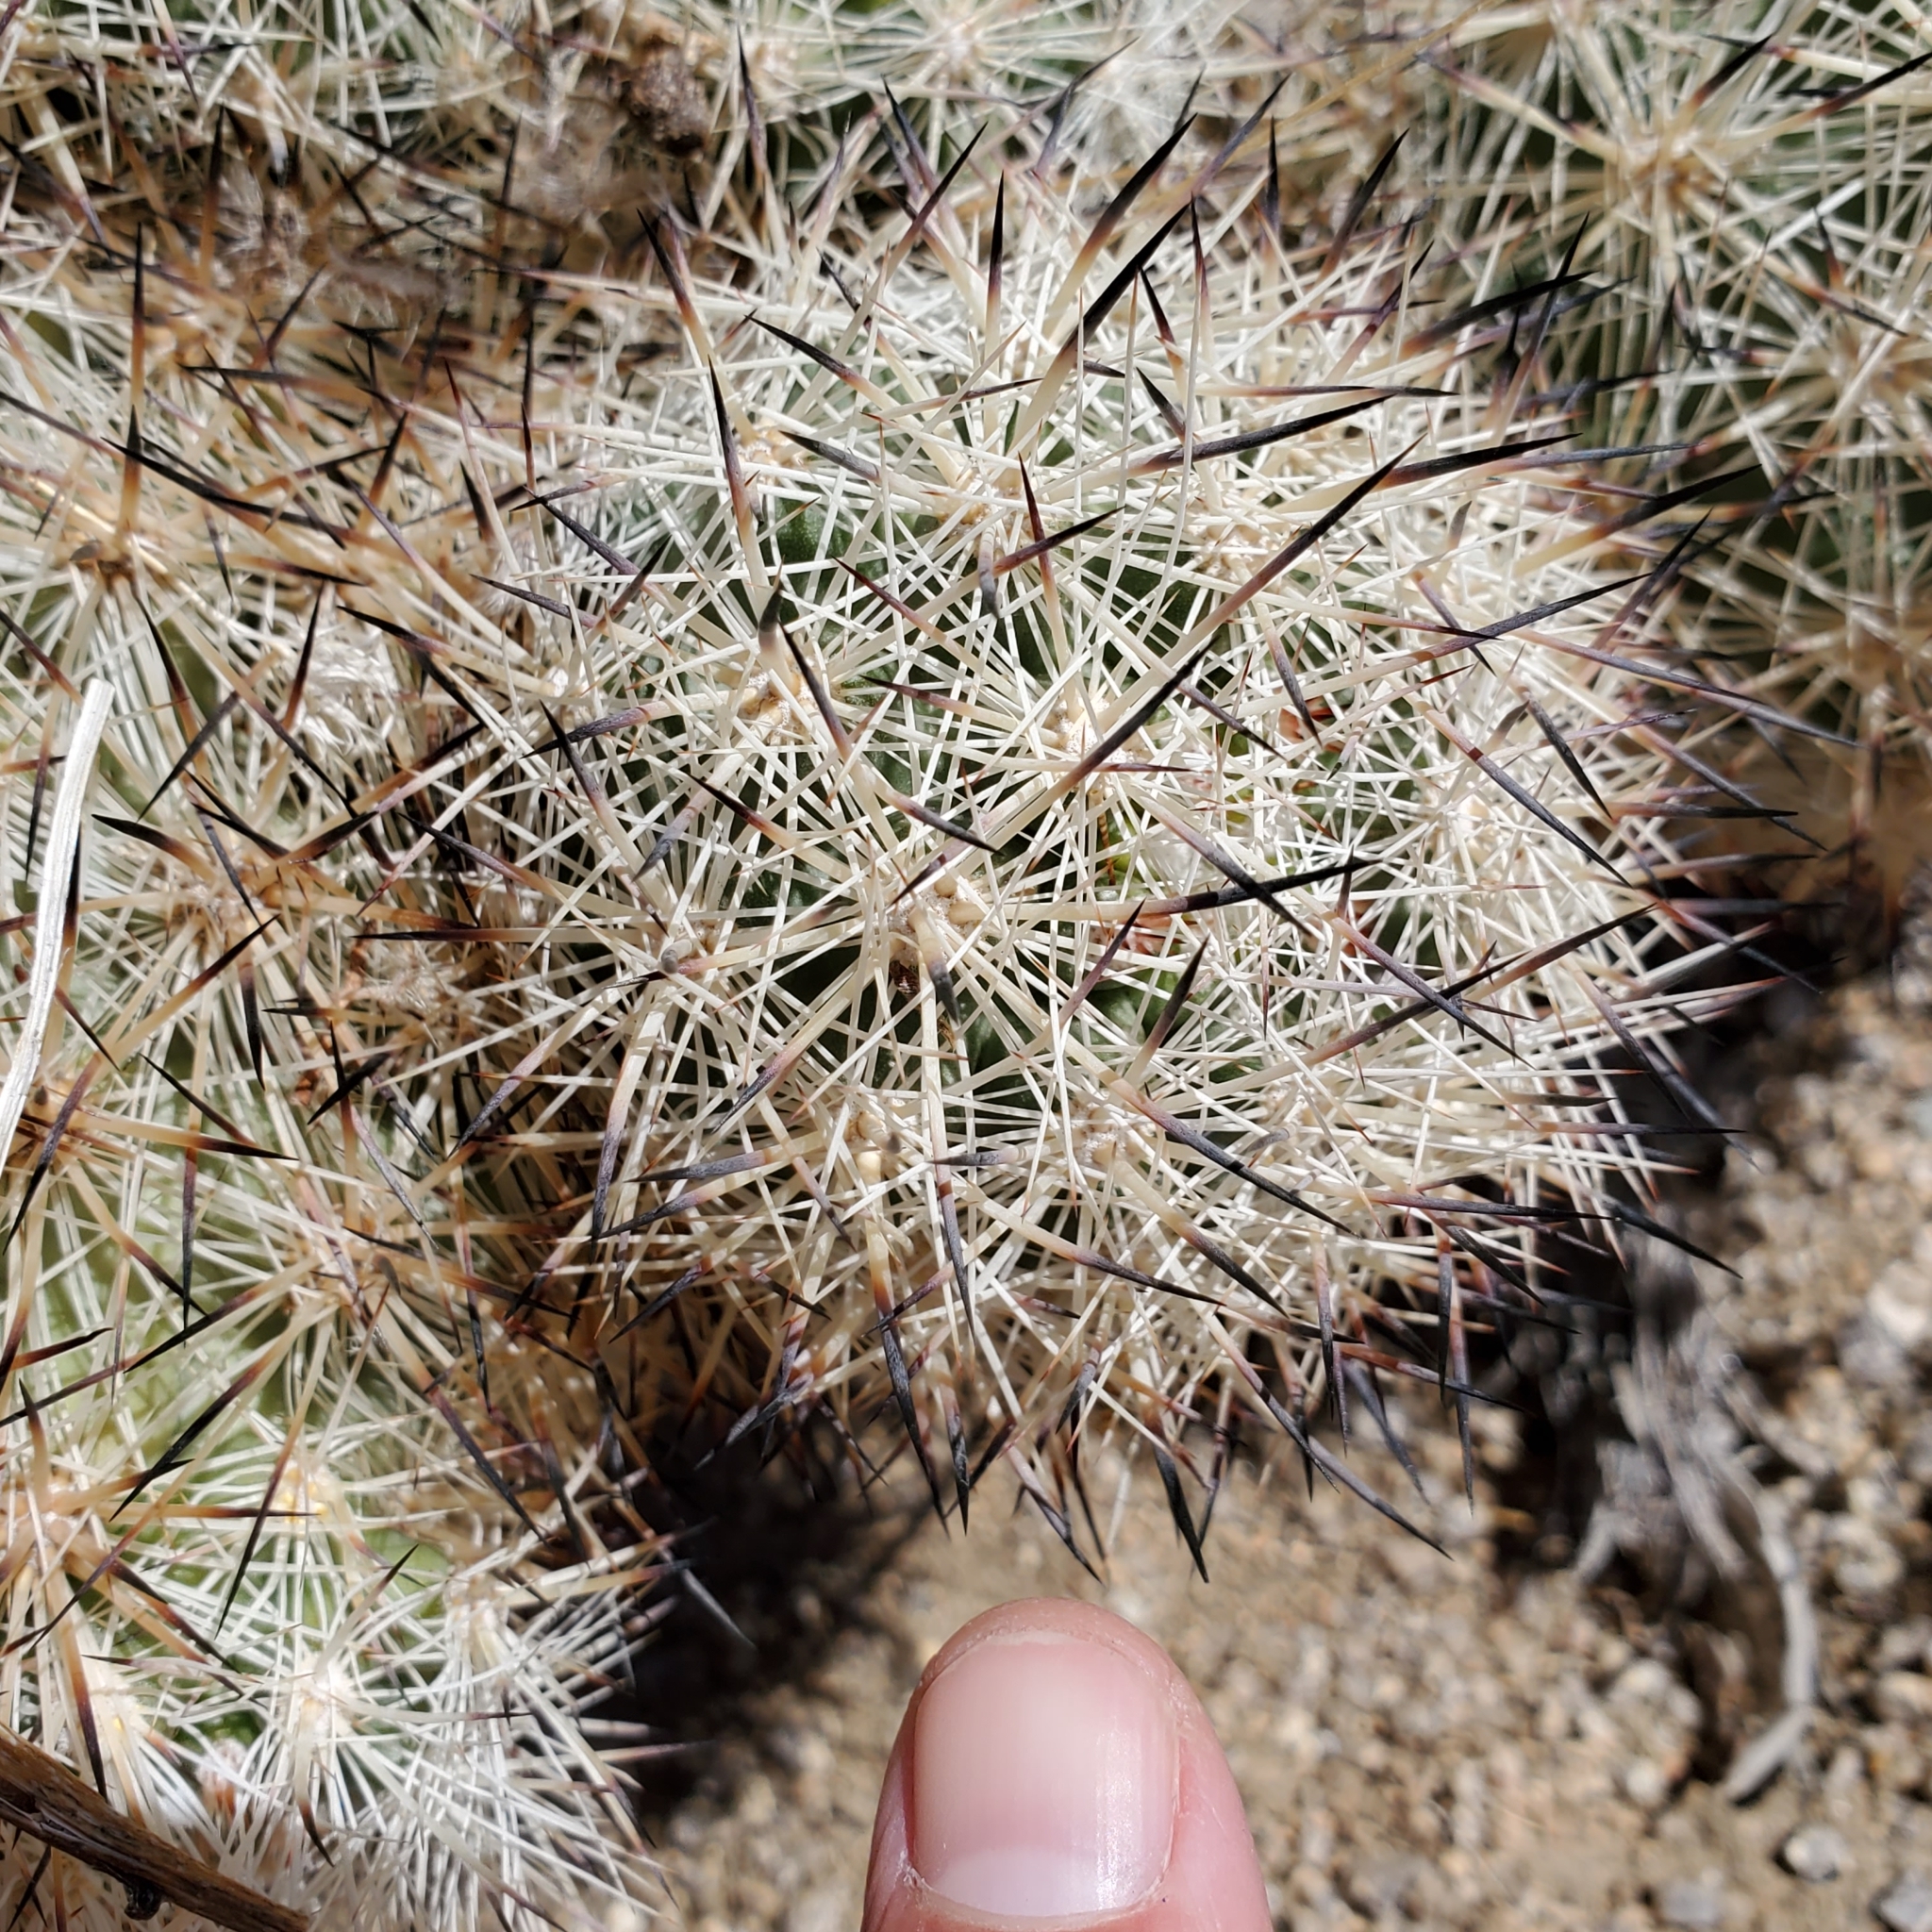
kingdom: Plantae
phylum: Tracheophyta
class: Magnoliopsida
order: Caryophyllales
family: Cactaceae
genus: Pelecyphora
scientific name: Pelecyphora alversonii
